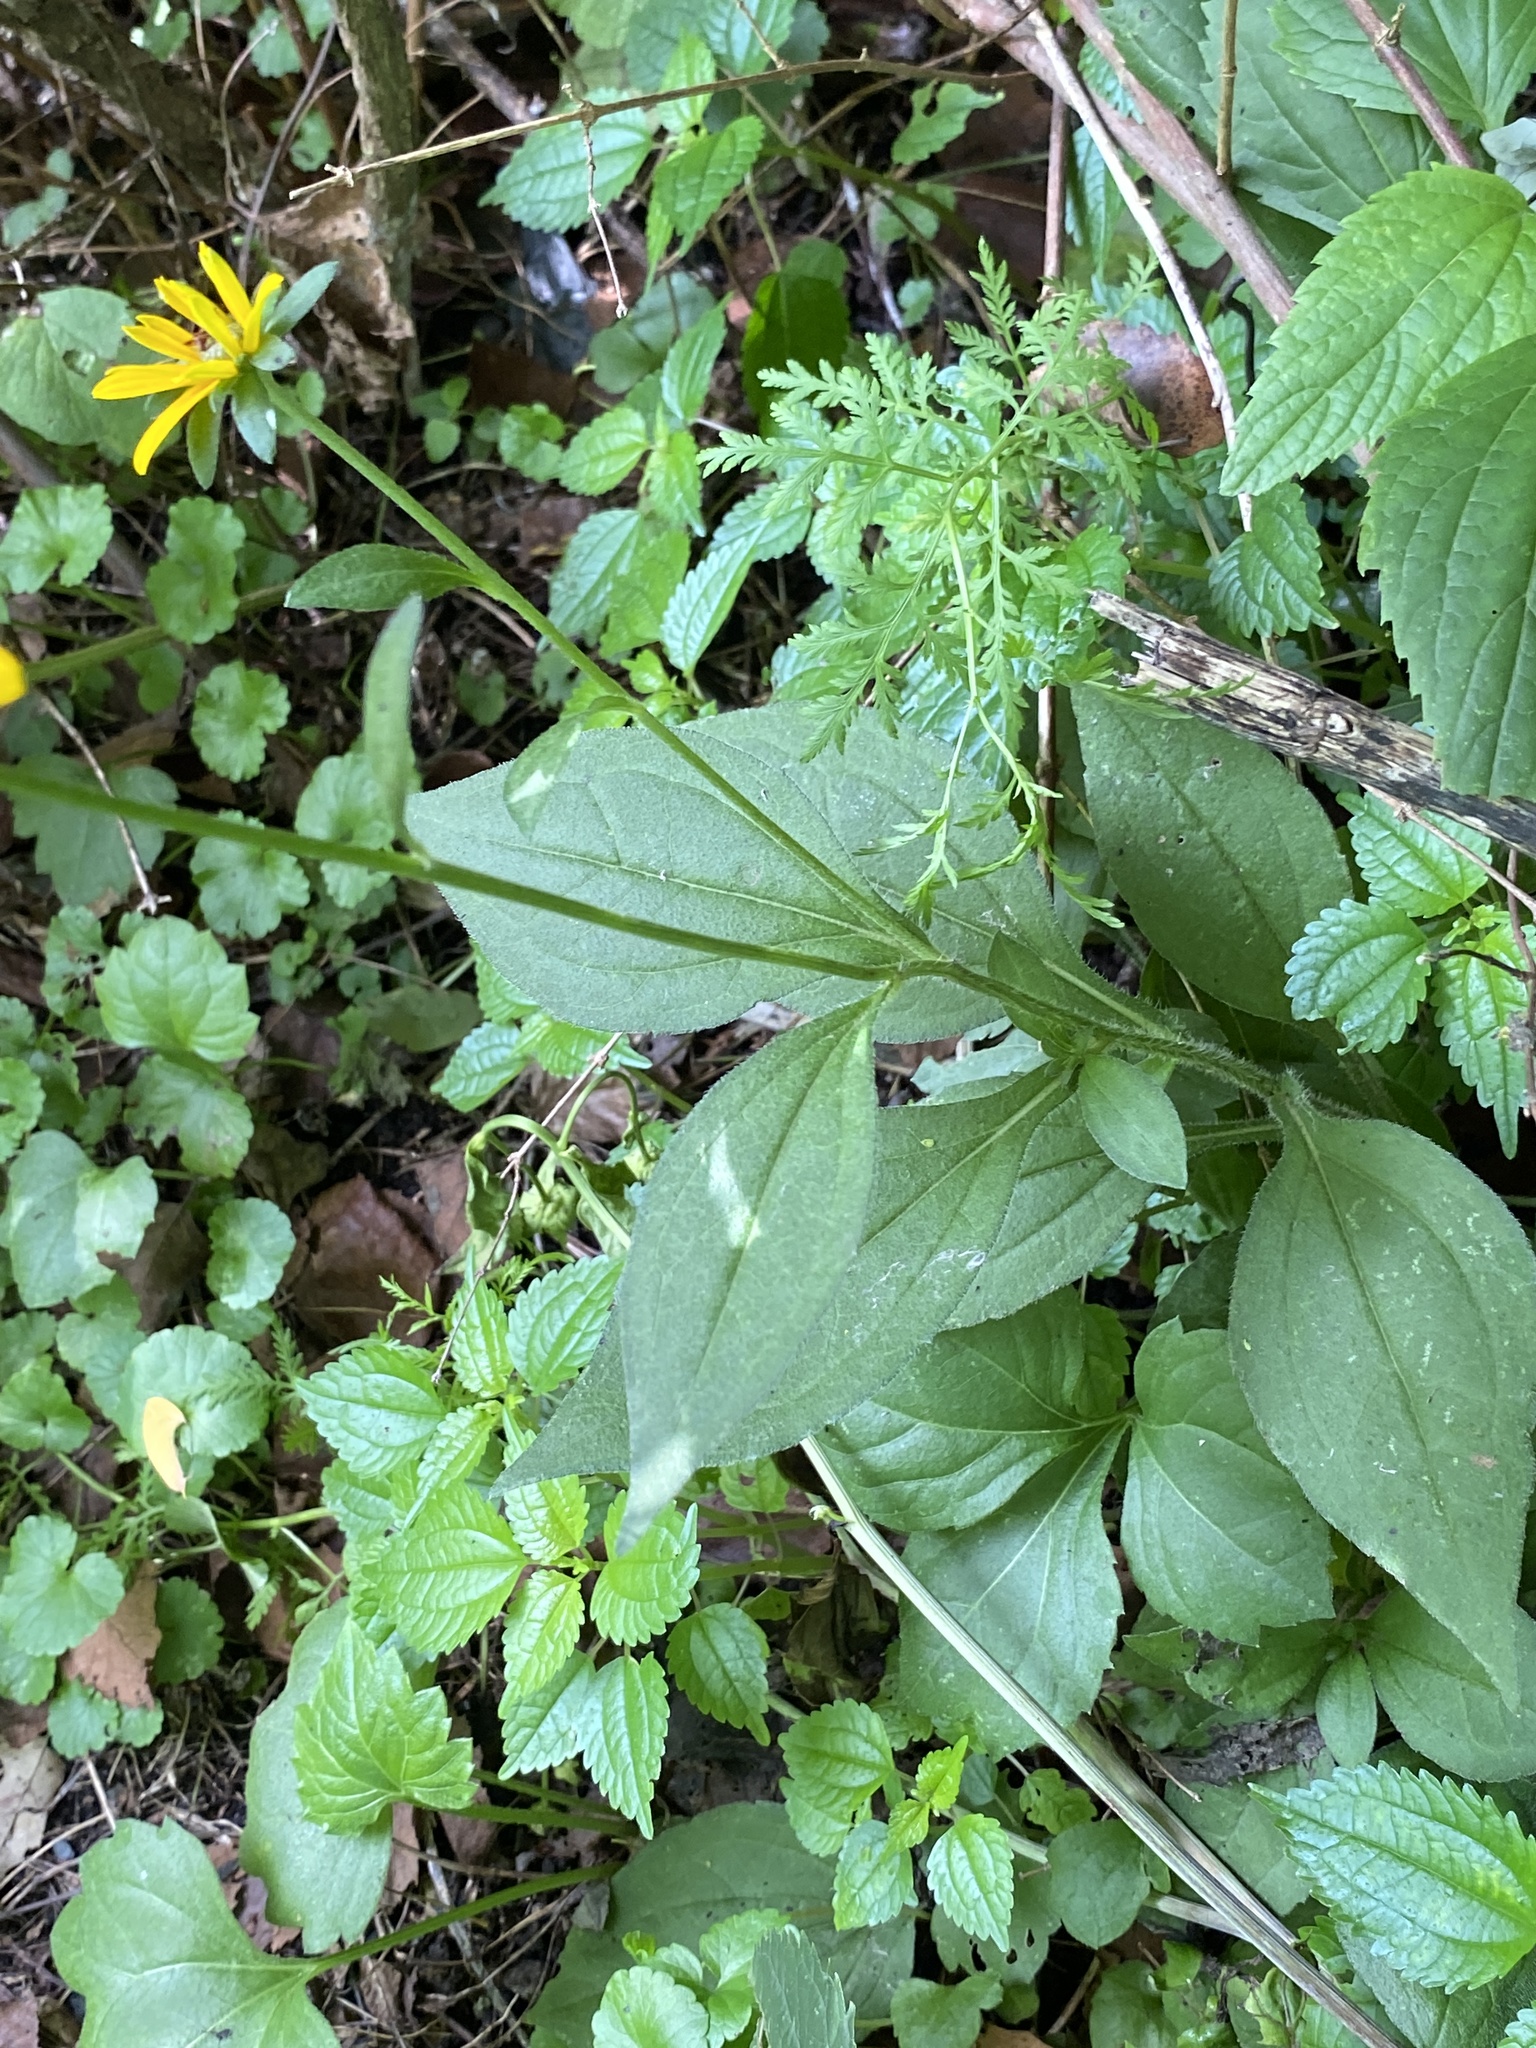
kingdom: Plantae
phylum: Tracheophyta
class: Magnoliopsida
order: Asterales
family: Asteraceae
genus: Rudbeckia
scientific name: Rudbeckia hirta
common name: Black-eyed-susan
